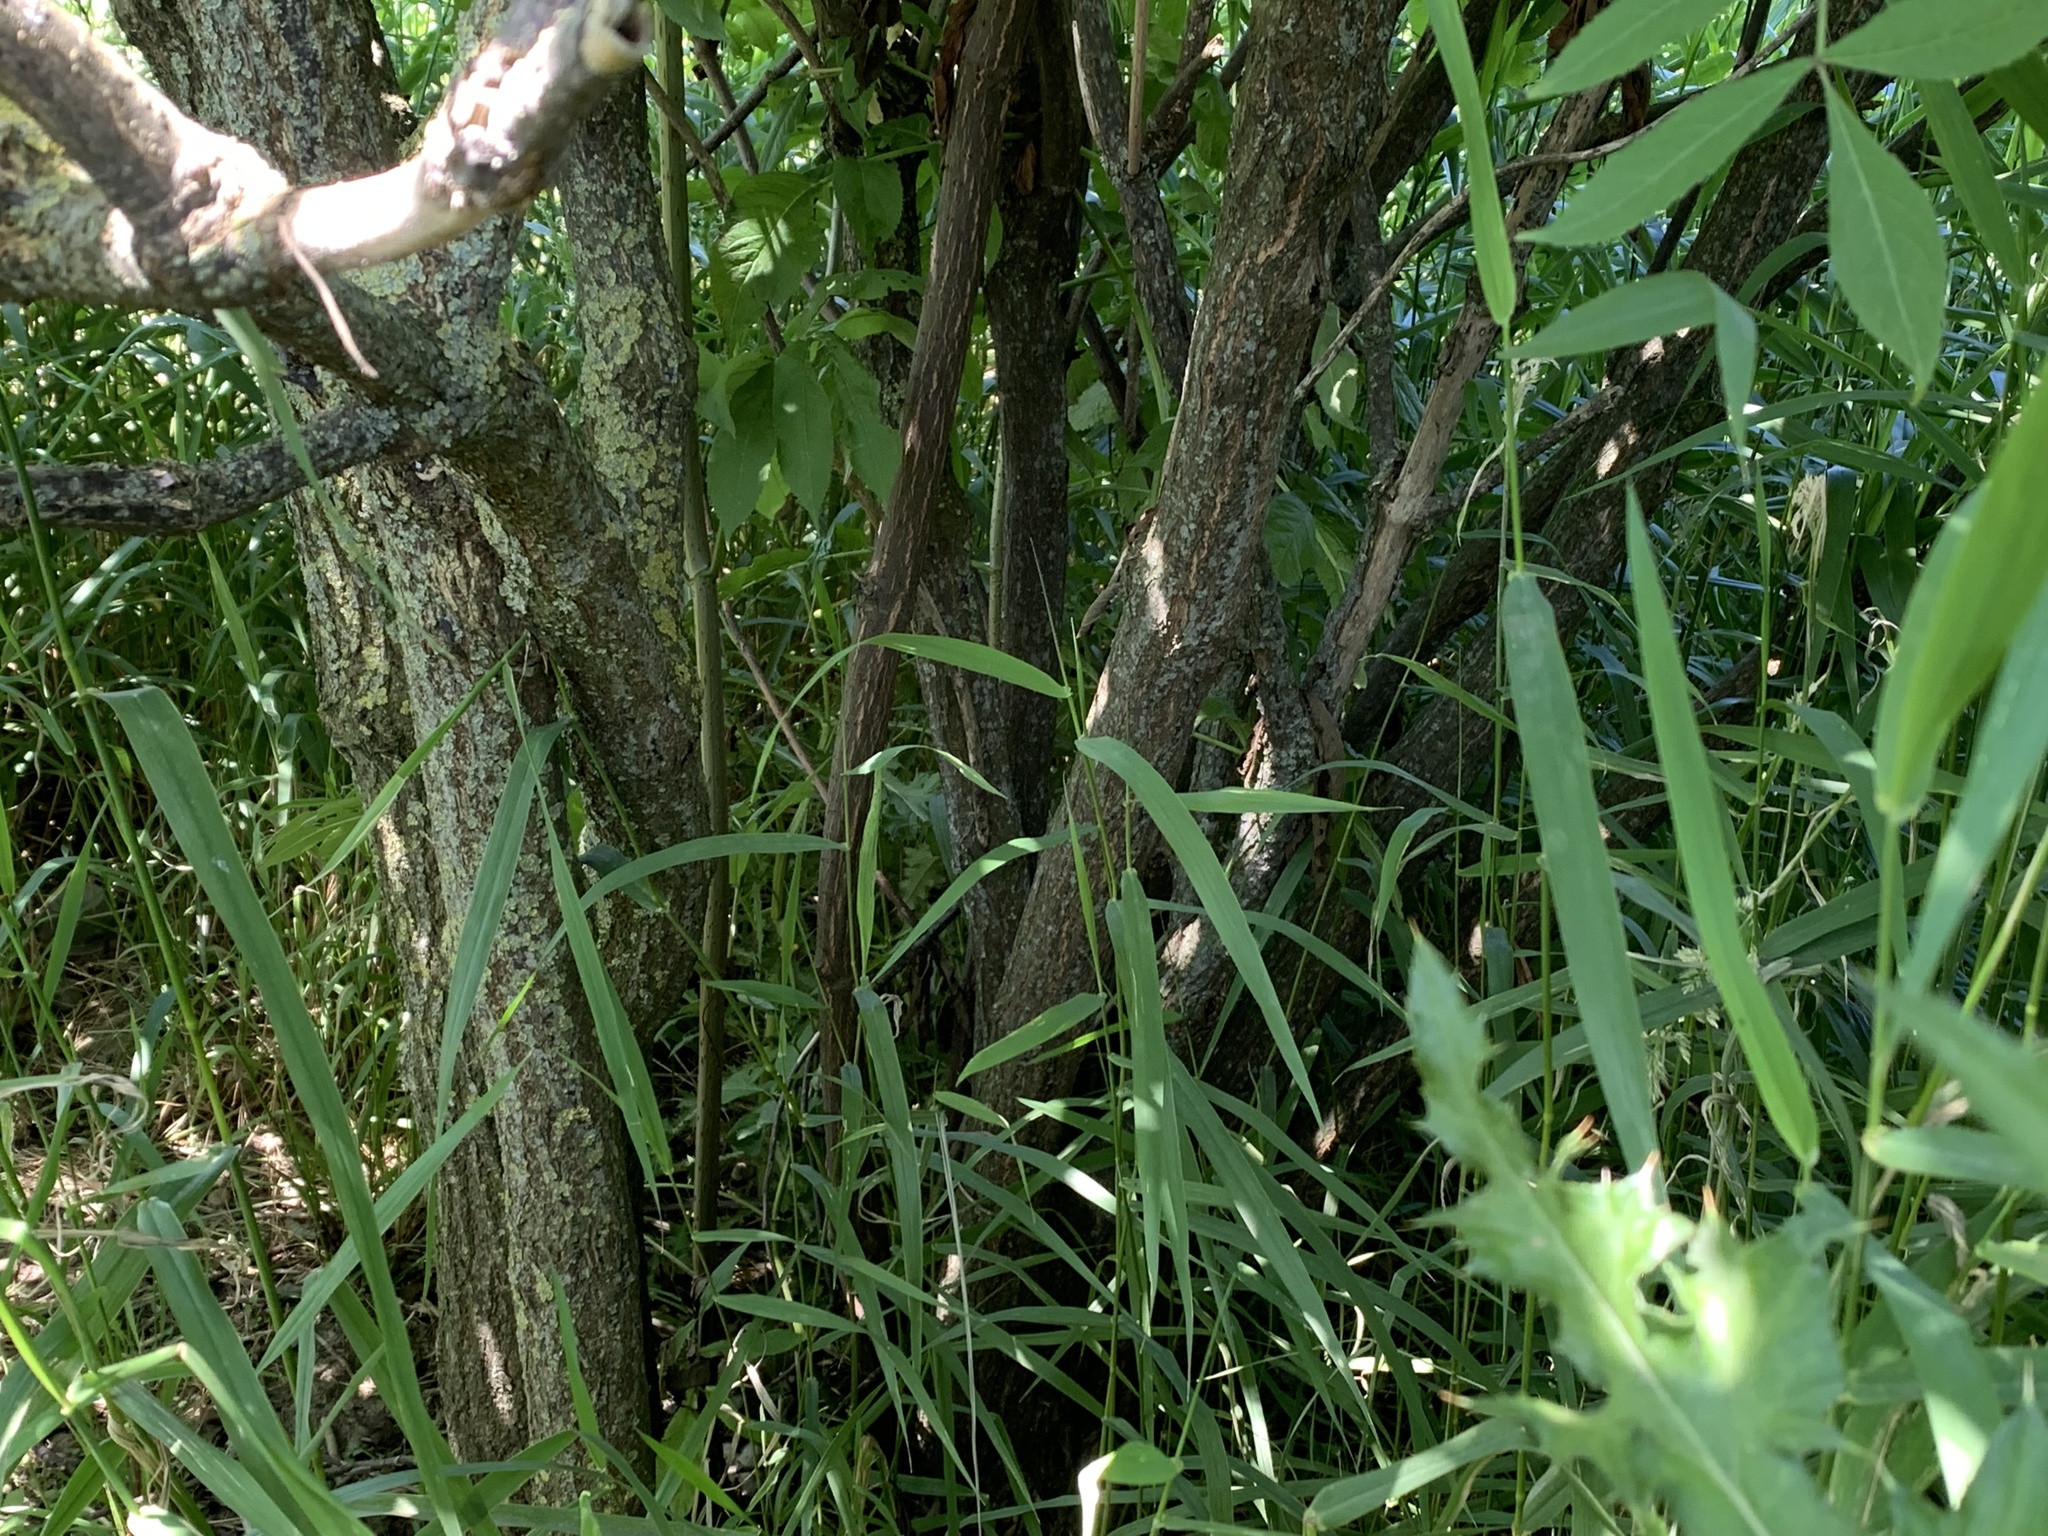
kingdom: Plantae
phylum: Tracheophyta
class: Magnoliopsida
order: Dipsacales
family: Viburnaceae
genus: Sambucus
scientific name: Sambucus racemosa
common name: Red-berried elder
